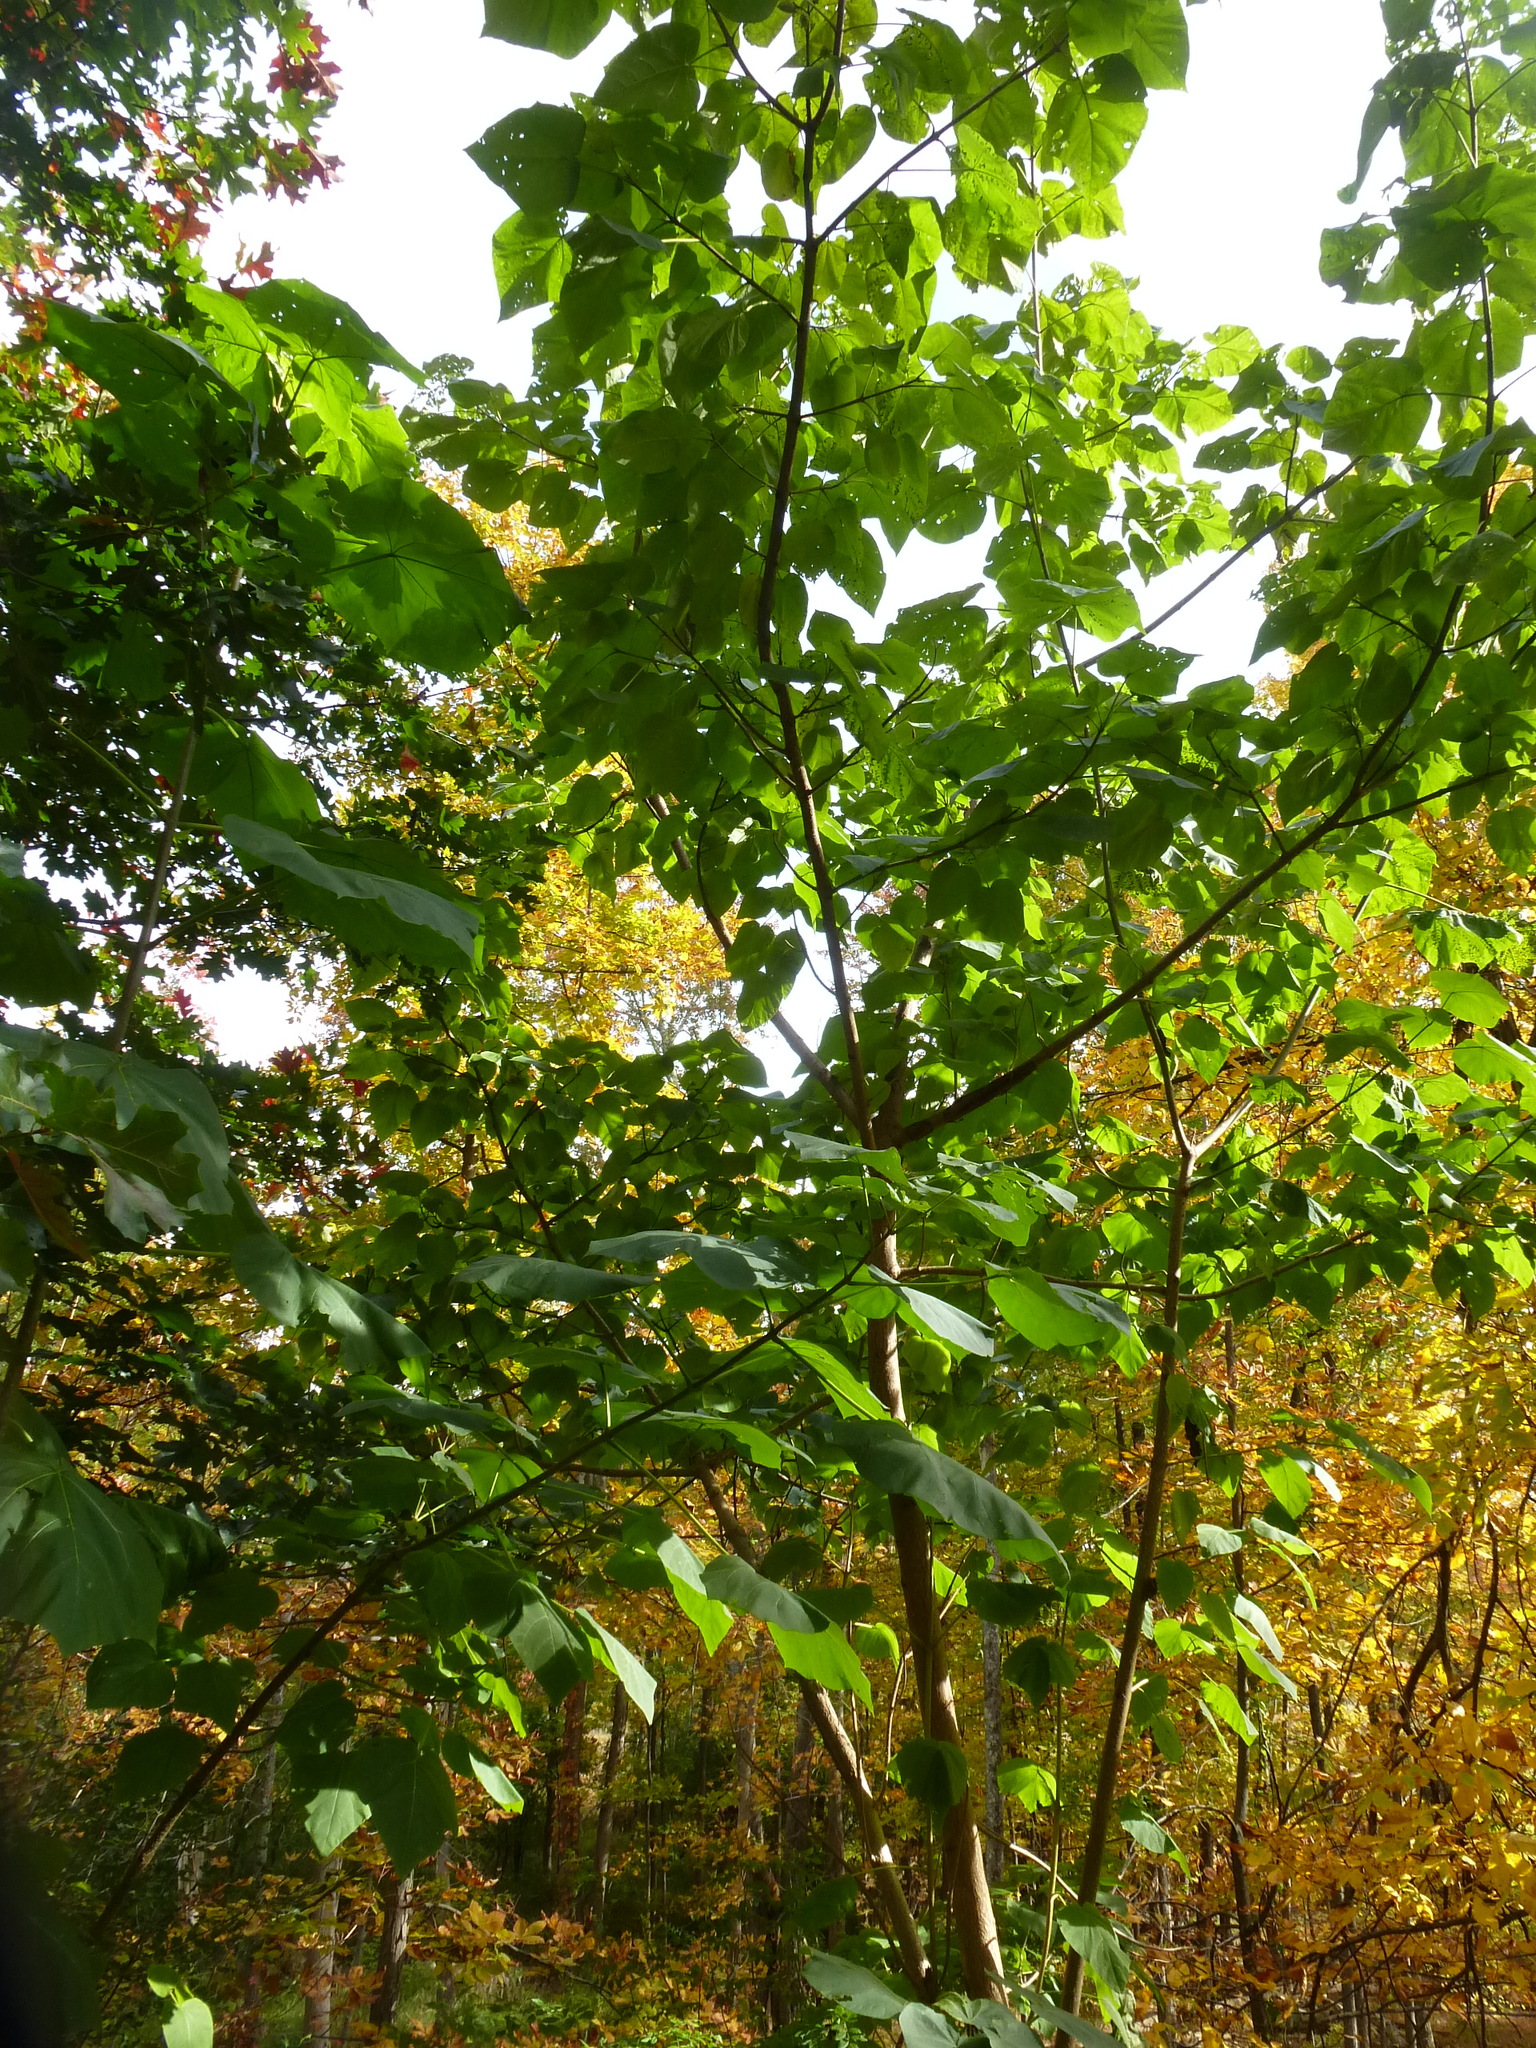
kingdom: Plantae
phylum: Tracheophyta
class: Magnoliopsida
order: Lamiales
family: Paulowniaceae
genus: Paulownia
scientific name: Paulownia tomentosa
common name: Foxglove-tree
